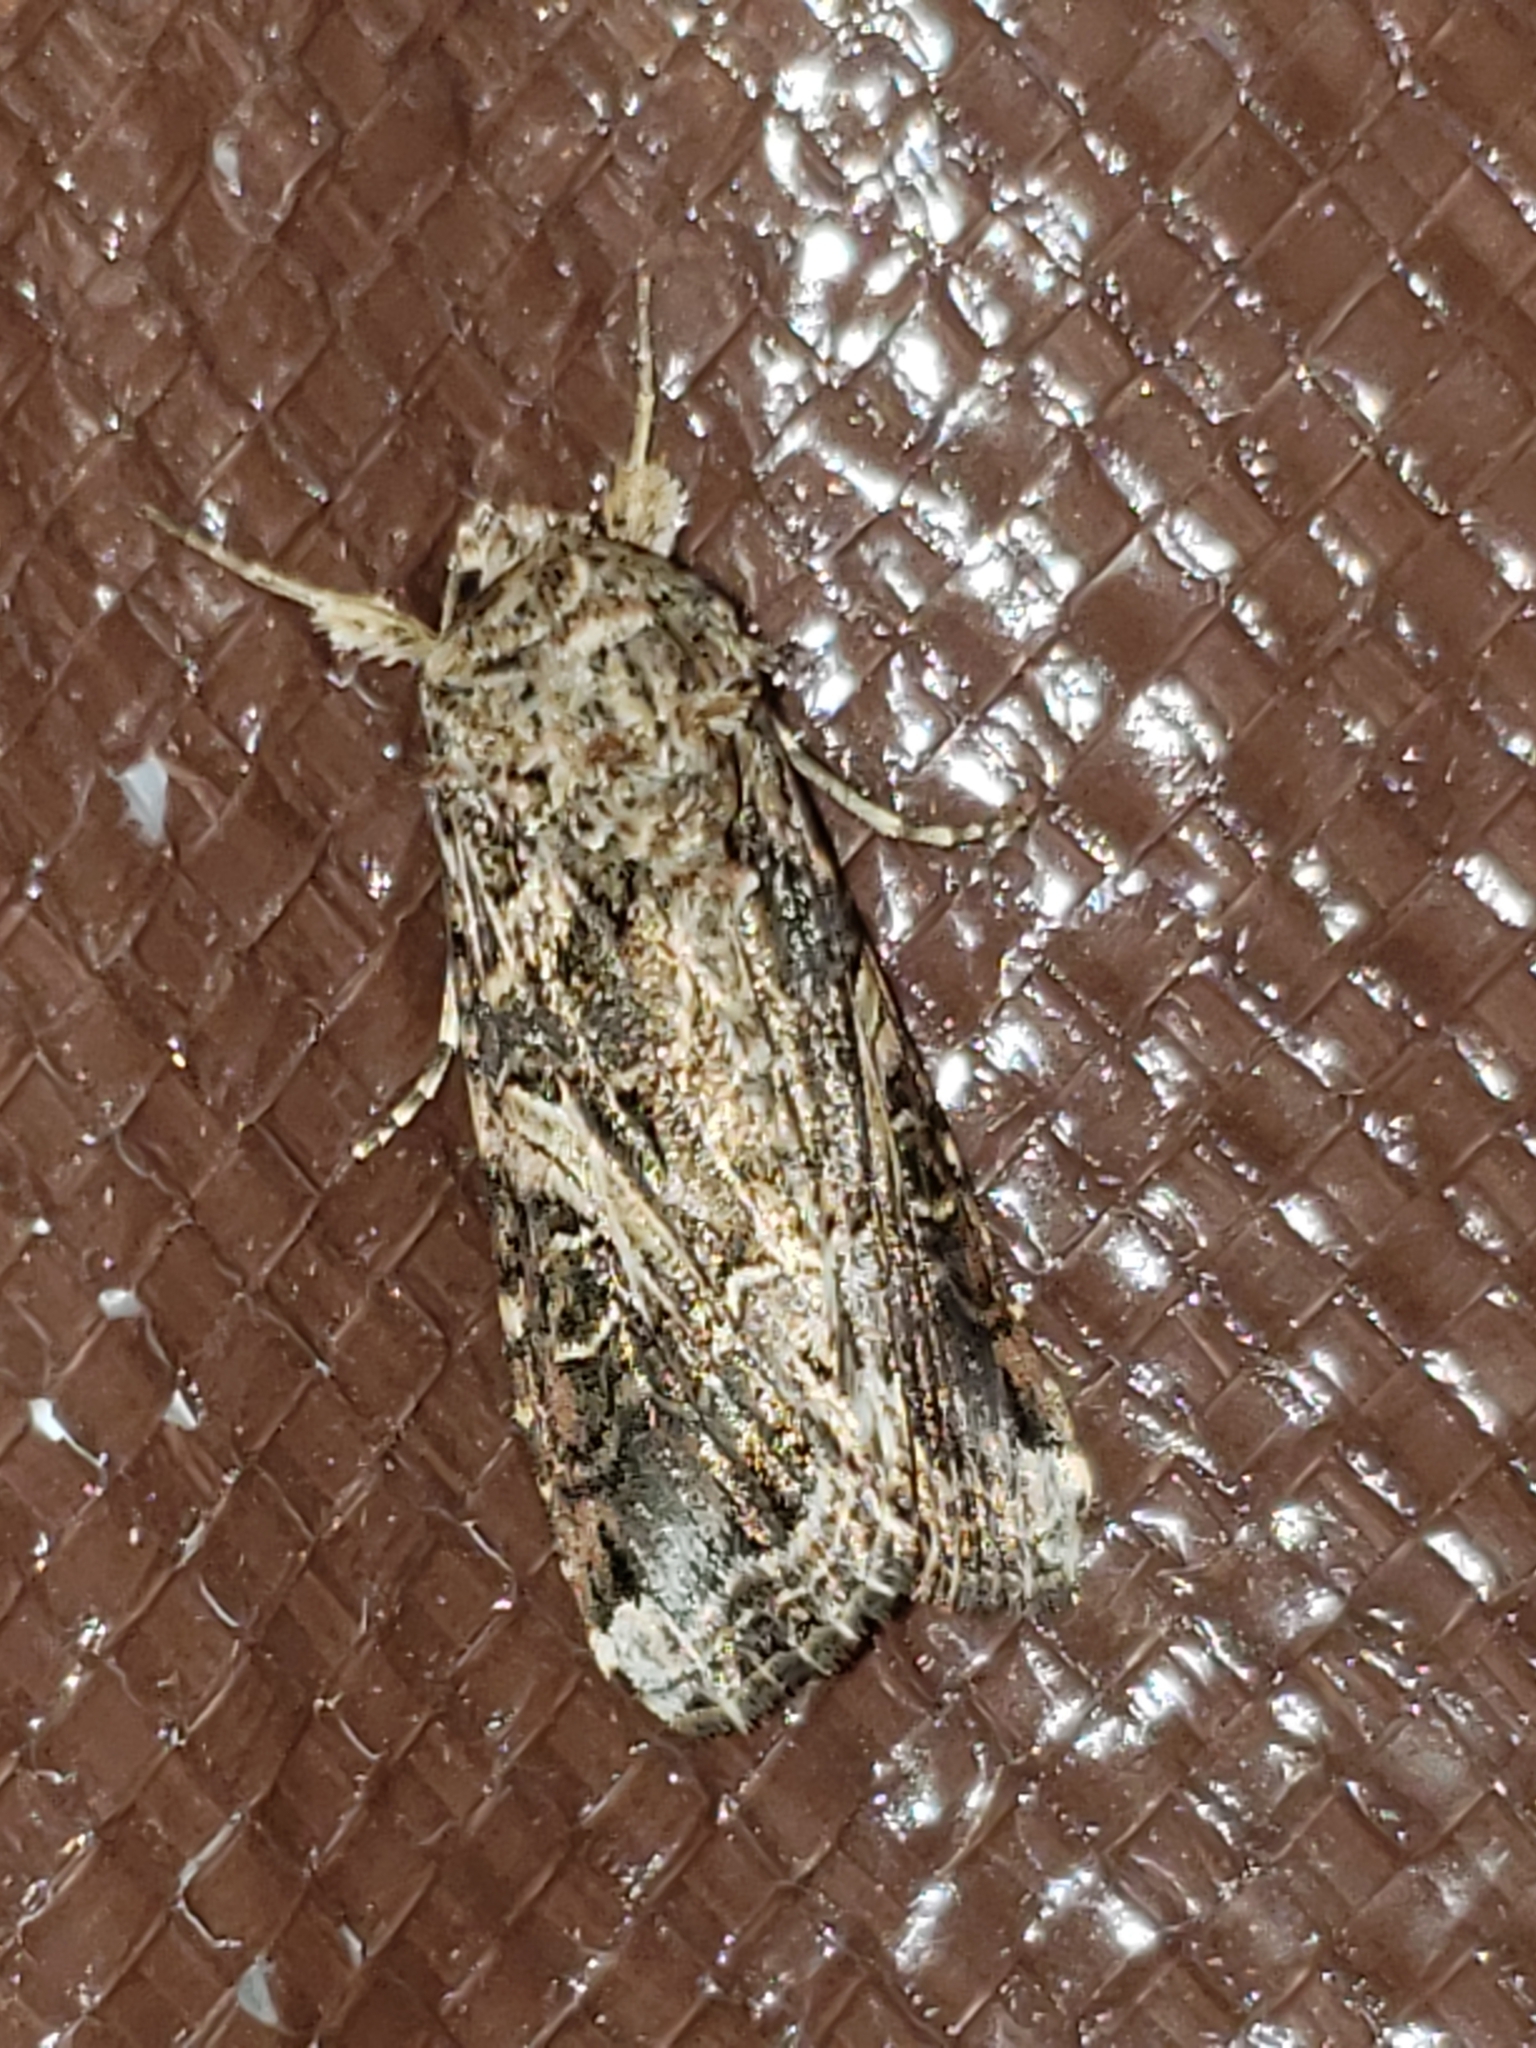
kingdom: Animalia
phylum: Arthropoda
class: Insecta
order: Lepidoptera
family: Noctuidae
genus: Spodoptera
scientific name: Spodoptera ornithogalli
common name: Yellow-striped armyworm
